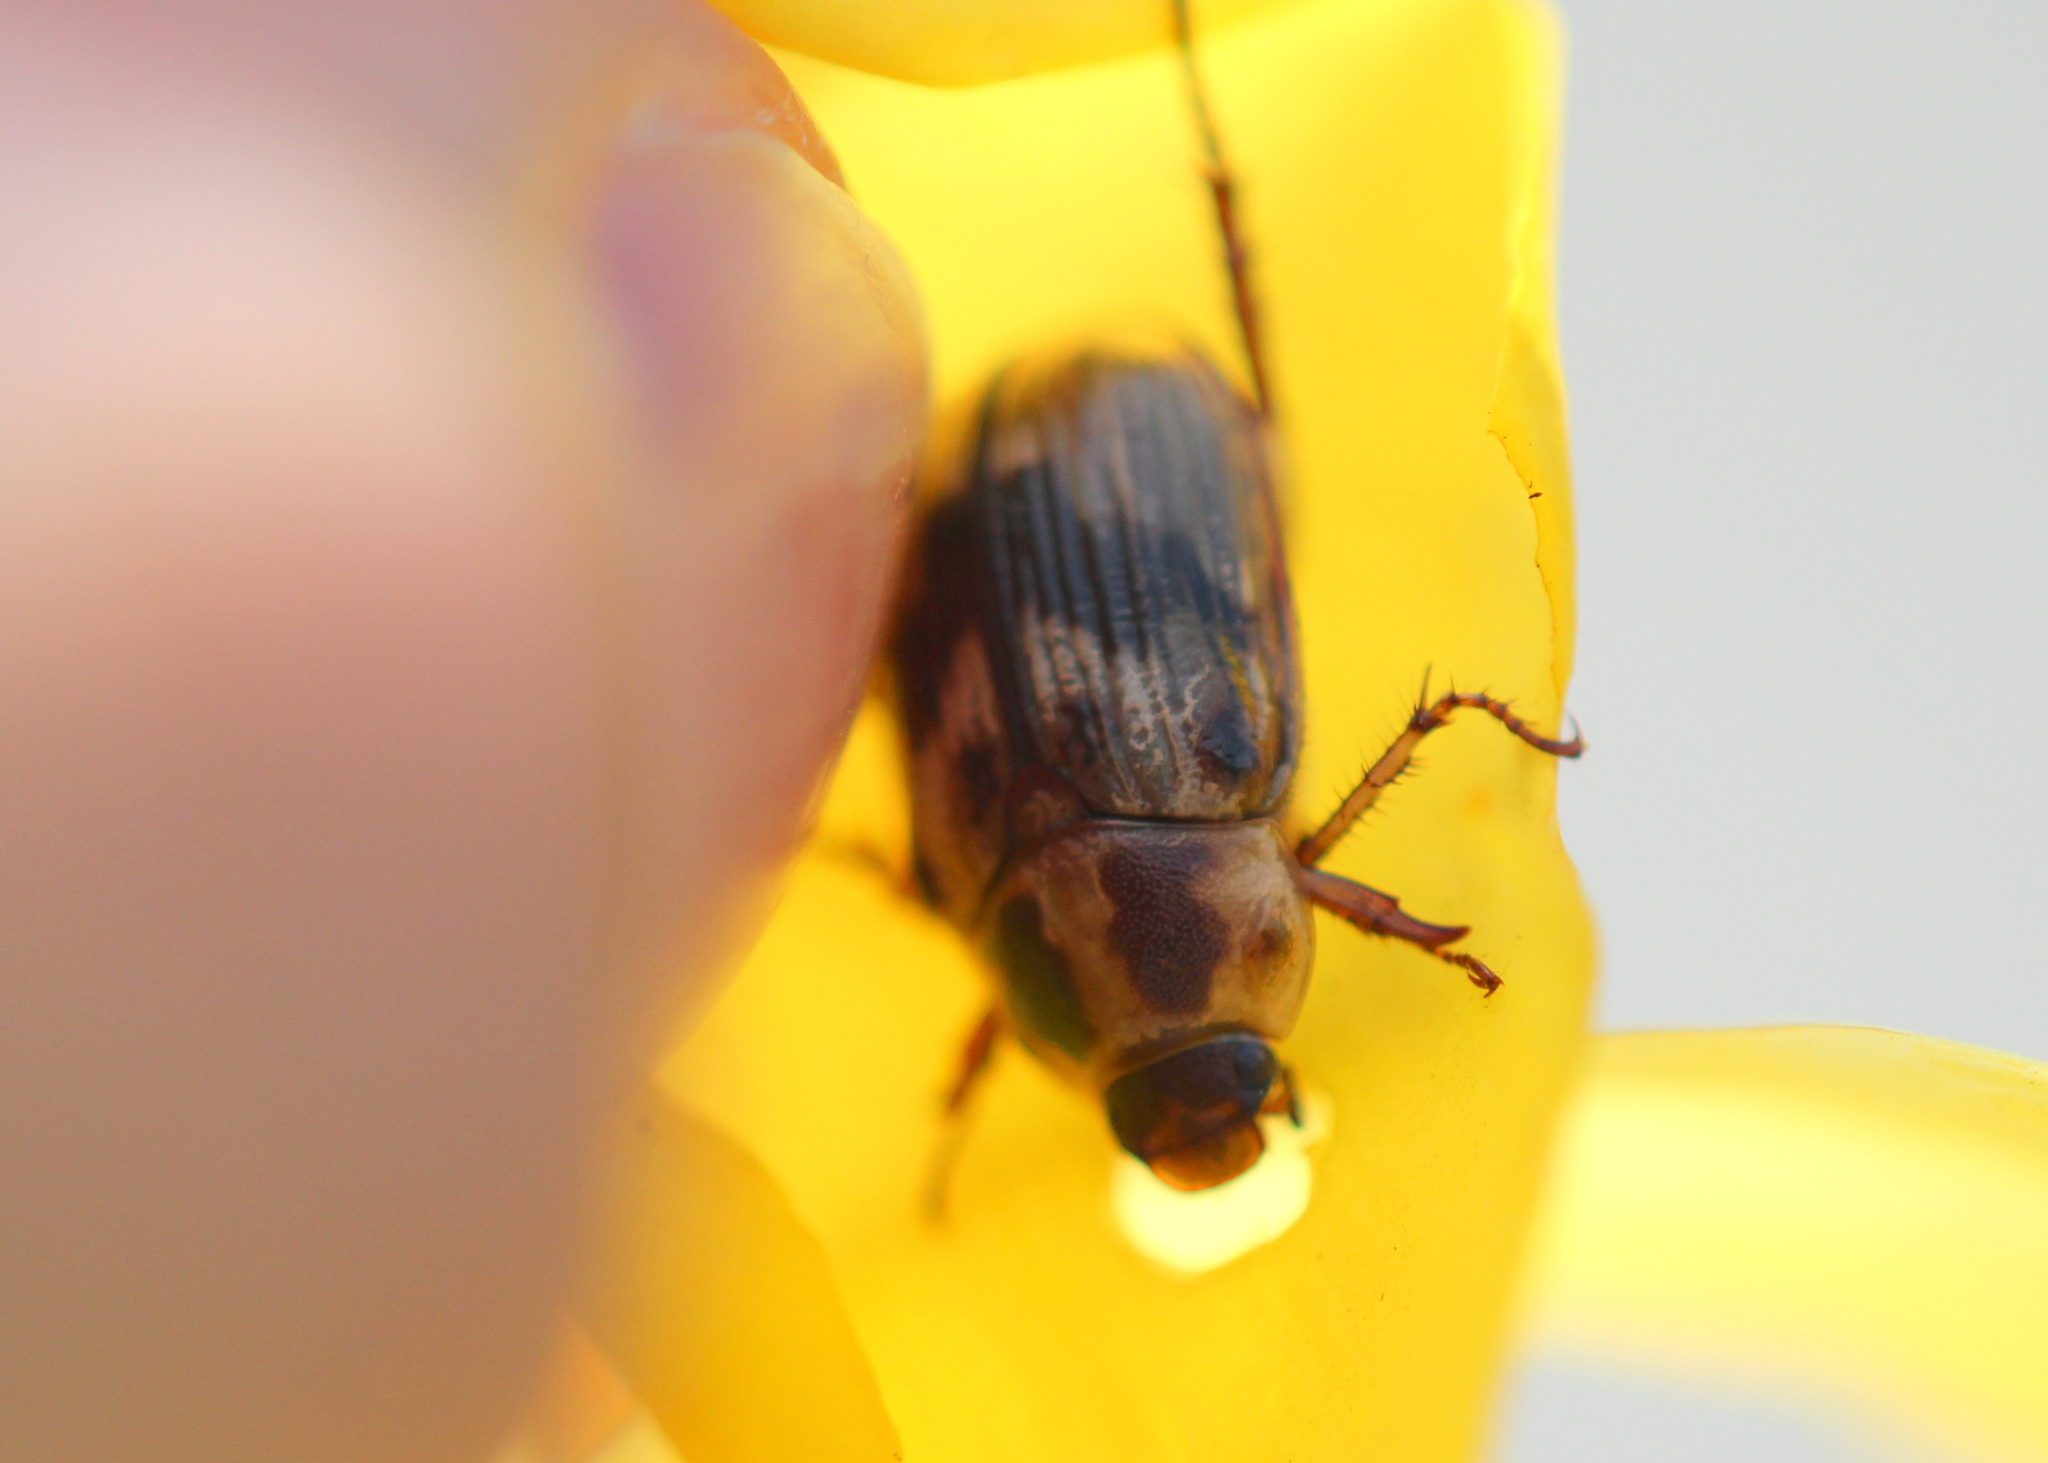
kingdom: Animalia
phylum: Arthropoda
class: Insecta
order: Coleoptera
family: Scarabaeidae
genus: Exomala
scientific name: Exomala orientalis
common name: Oriental beetle
